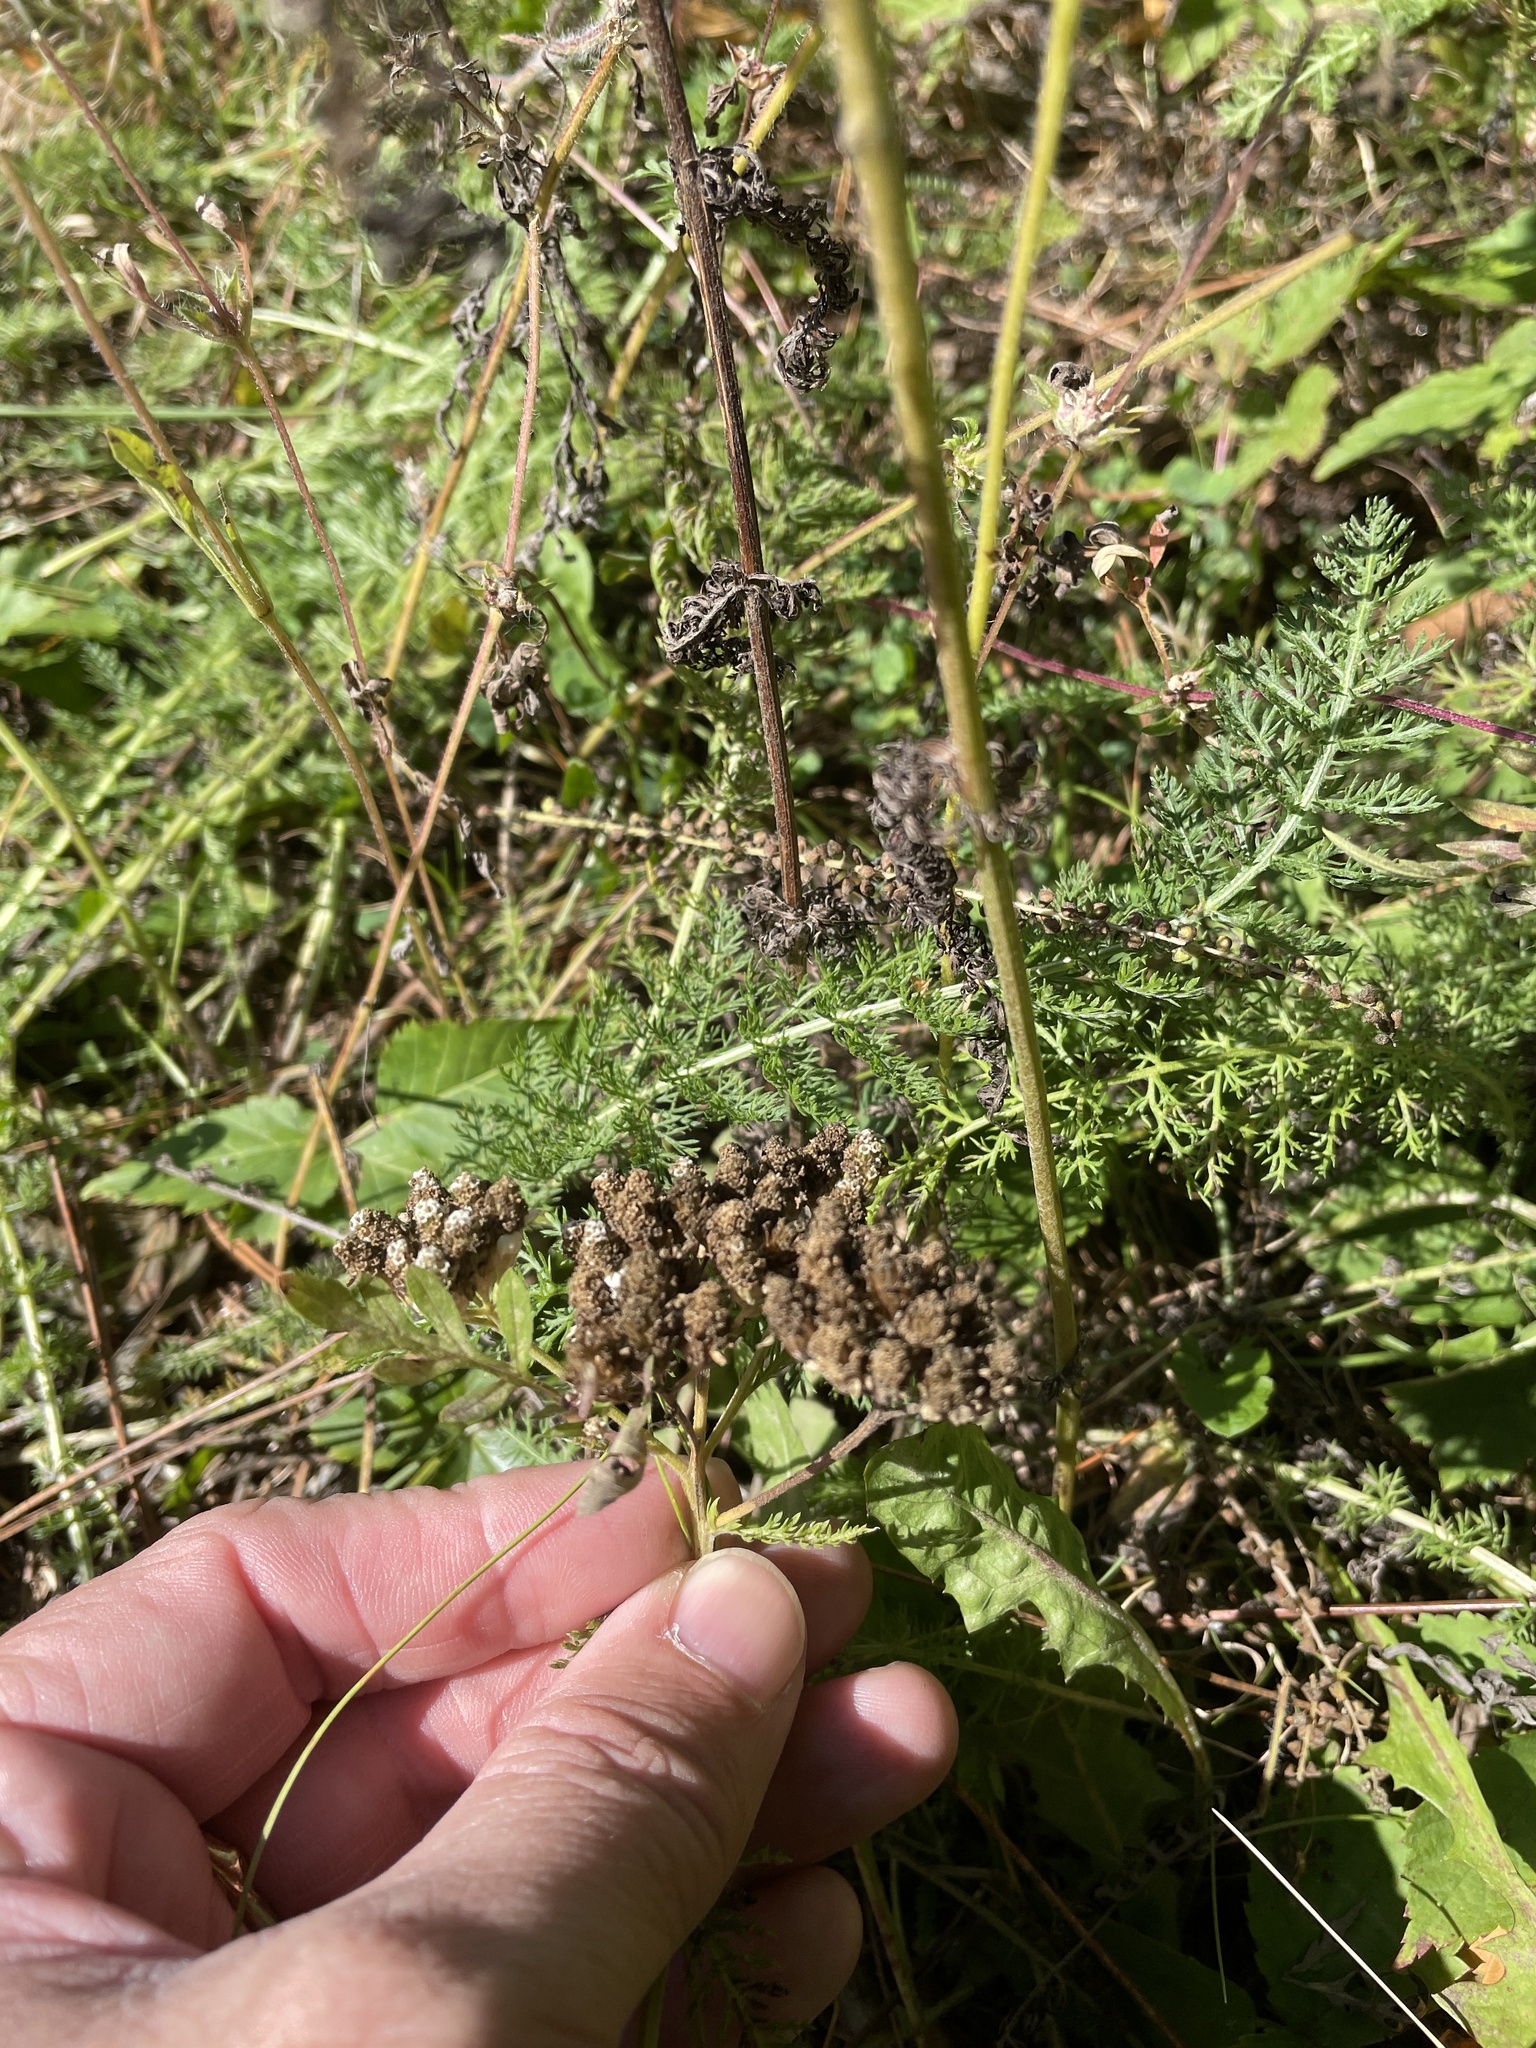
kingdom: Plantae
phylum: Tracheophyta
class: Magnoliopsida
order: Asterales
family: Asteraceae
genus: Achillea
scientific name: Achillea millefolium
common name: Yarrow
